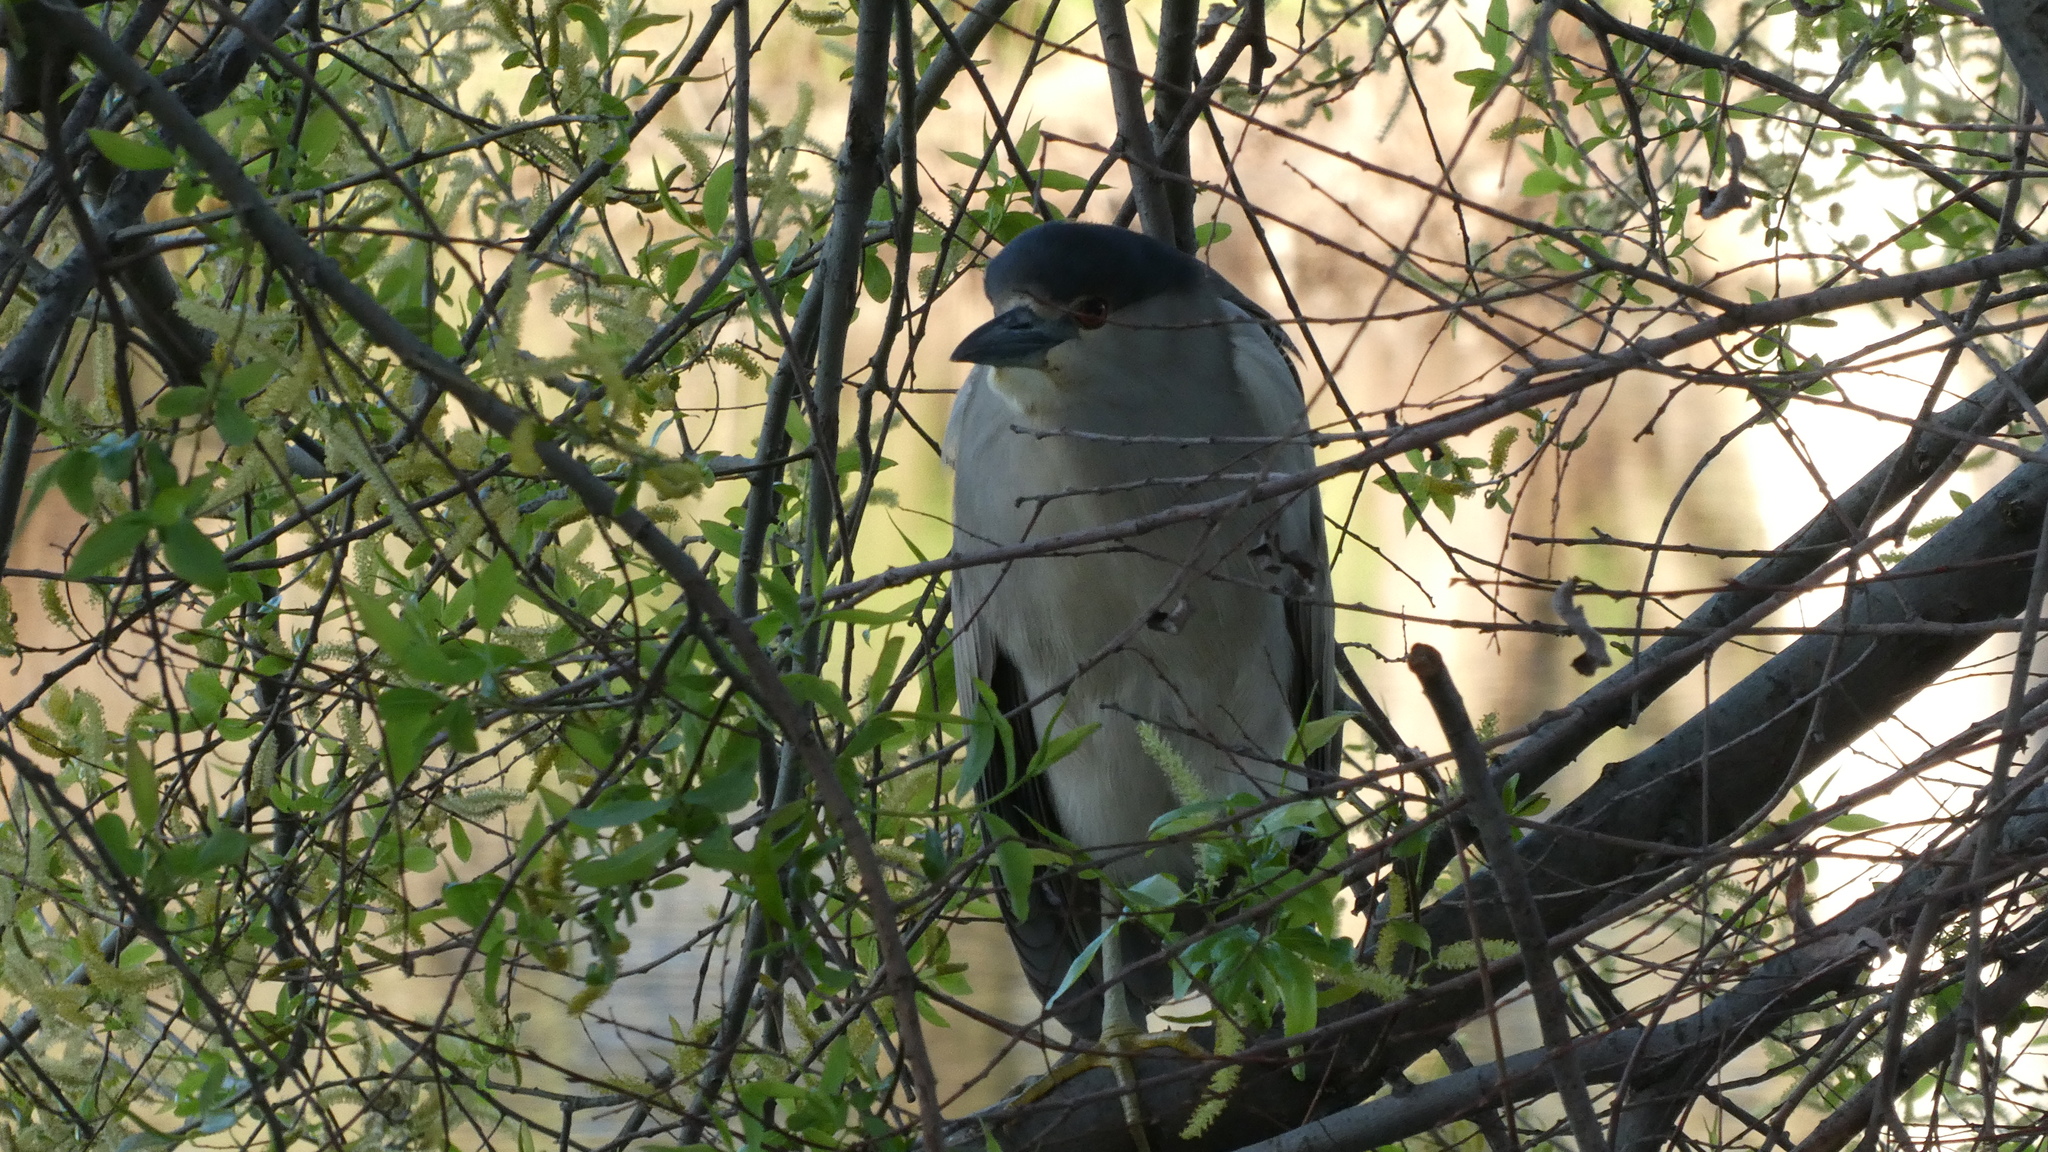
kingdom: Animalia
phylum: Chordata
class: Aves
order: Pelecaniformes
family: Ardeidae
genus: Nycticorax
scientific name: Nycticorax nycticorax
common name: Black-crowned night heron
